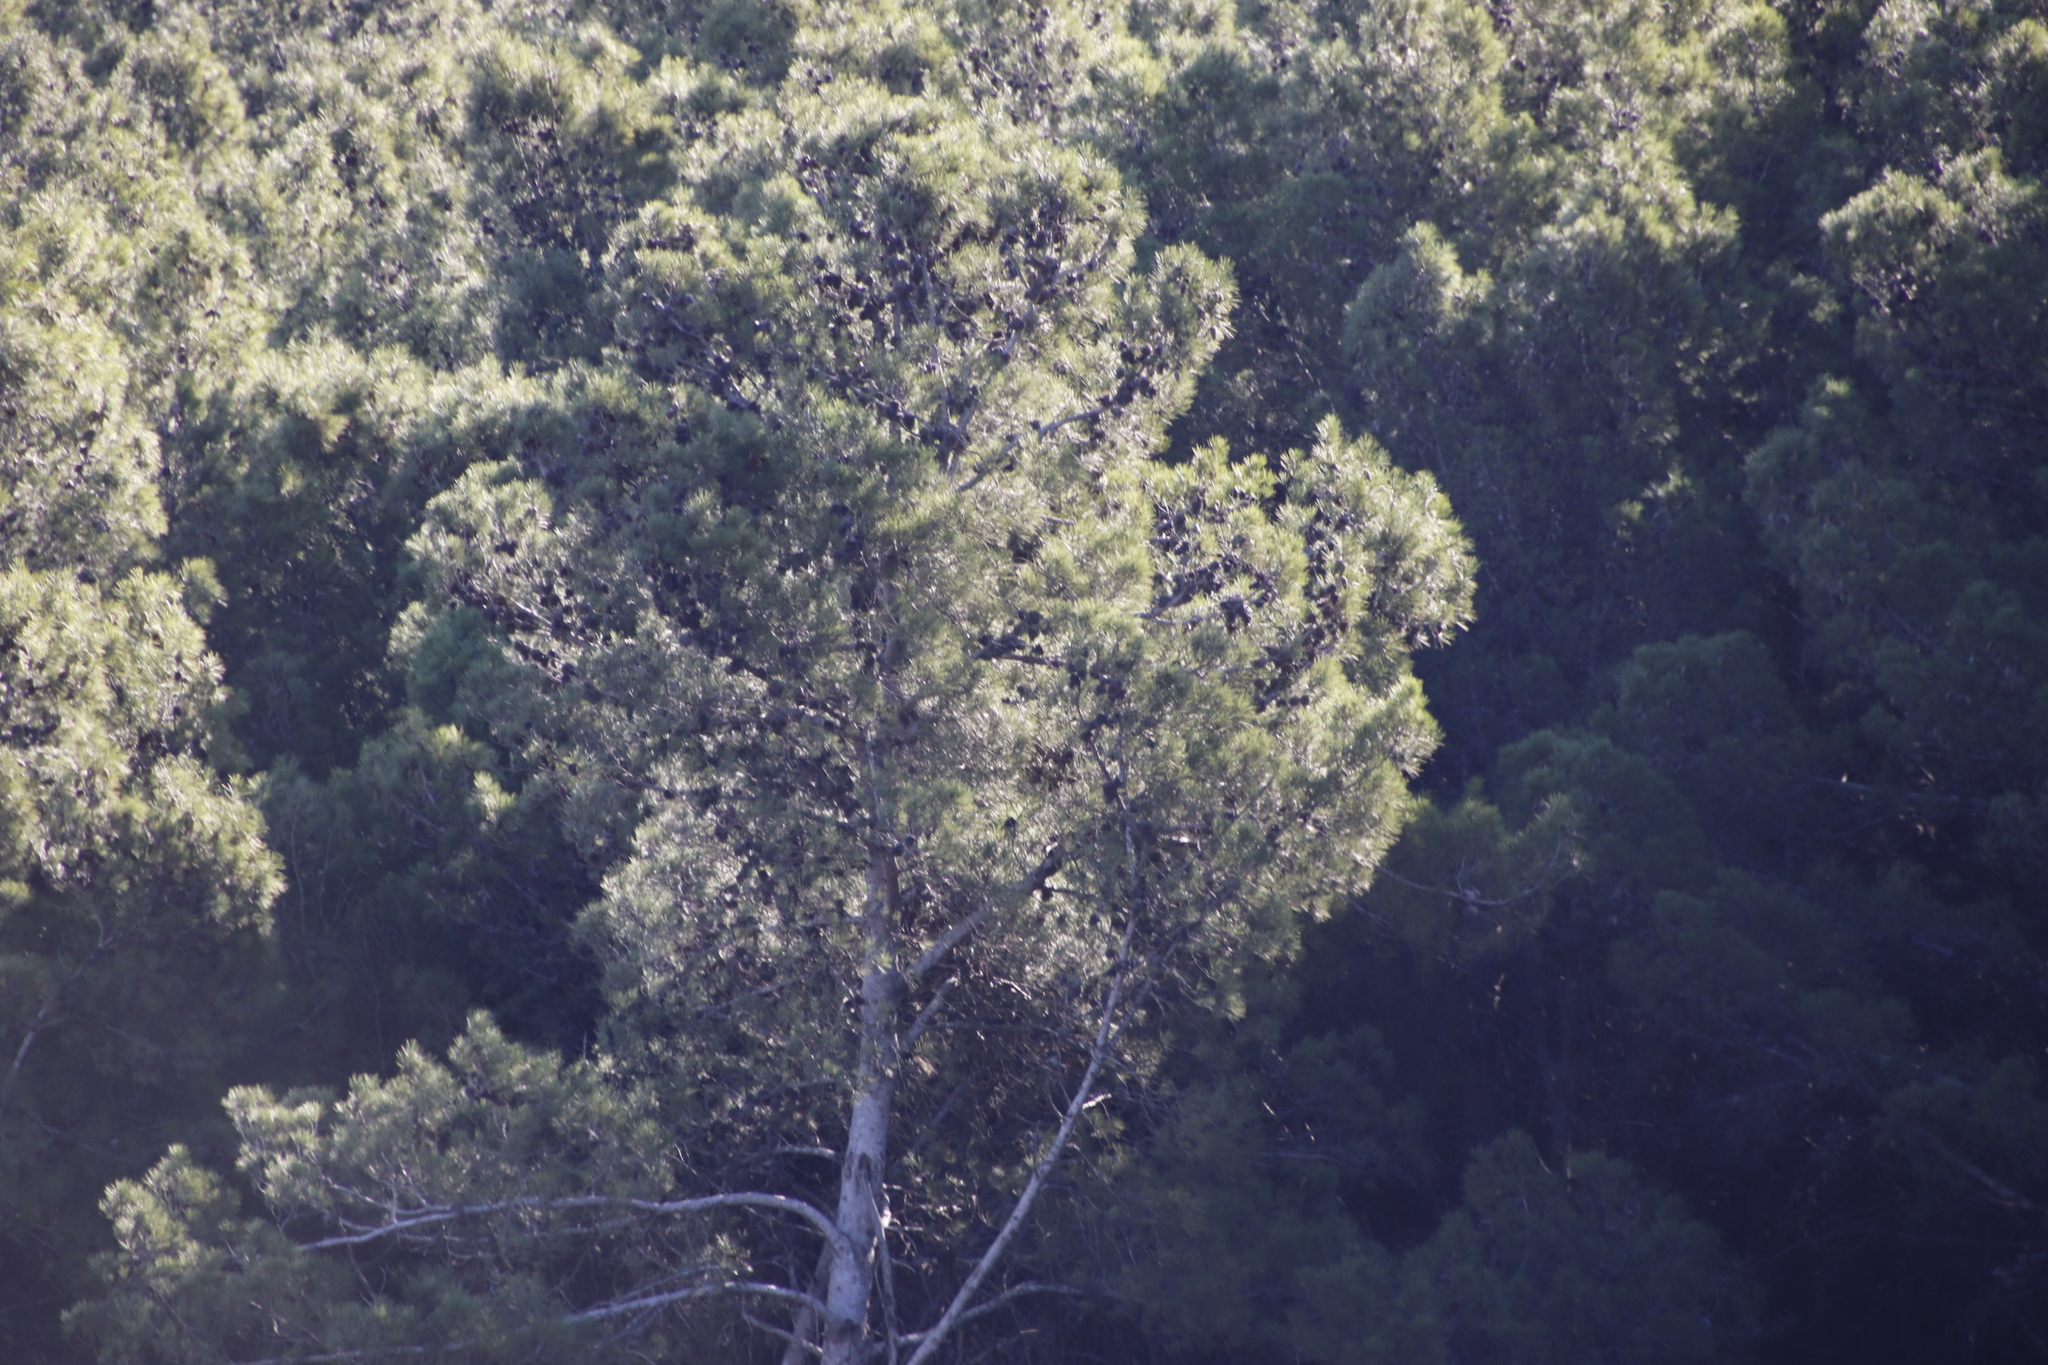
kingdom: Plantae
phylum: Tracheophyta
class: Pinopsida
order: Pinales
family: Pinaceae
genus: Pinus
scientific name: Pinus halepensis
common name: Aleppo pine
